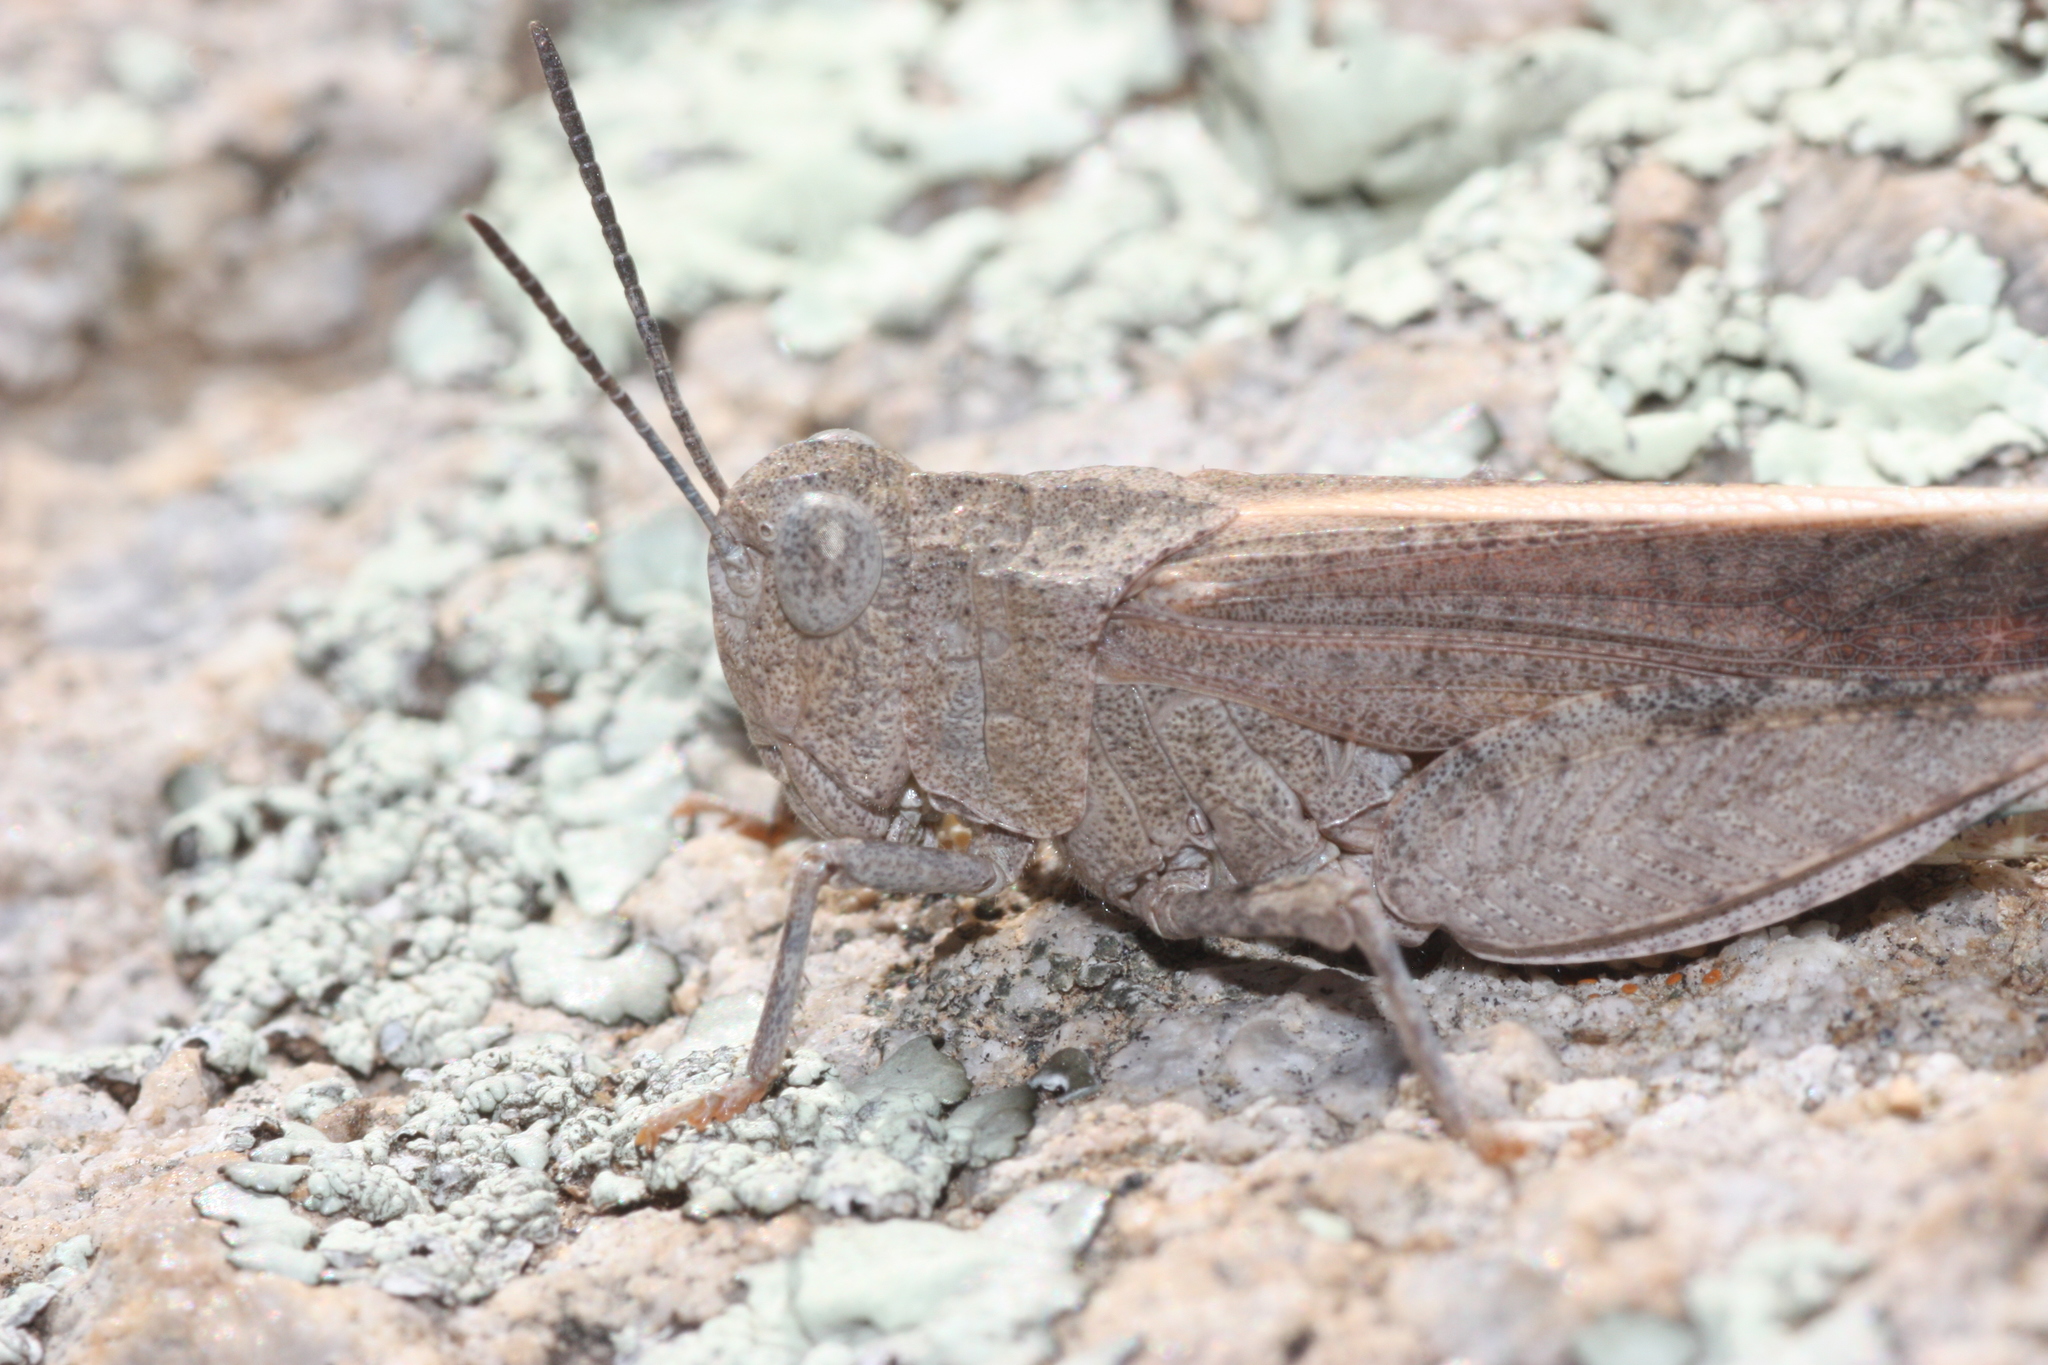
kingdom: Animalia
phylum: Arthropoda
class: Insecta
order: Orthoptera
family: Acrididae
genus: Arphia
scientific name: Arphia conspersa
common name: Speckle-winged rangeland grasshopper
